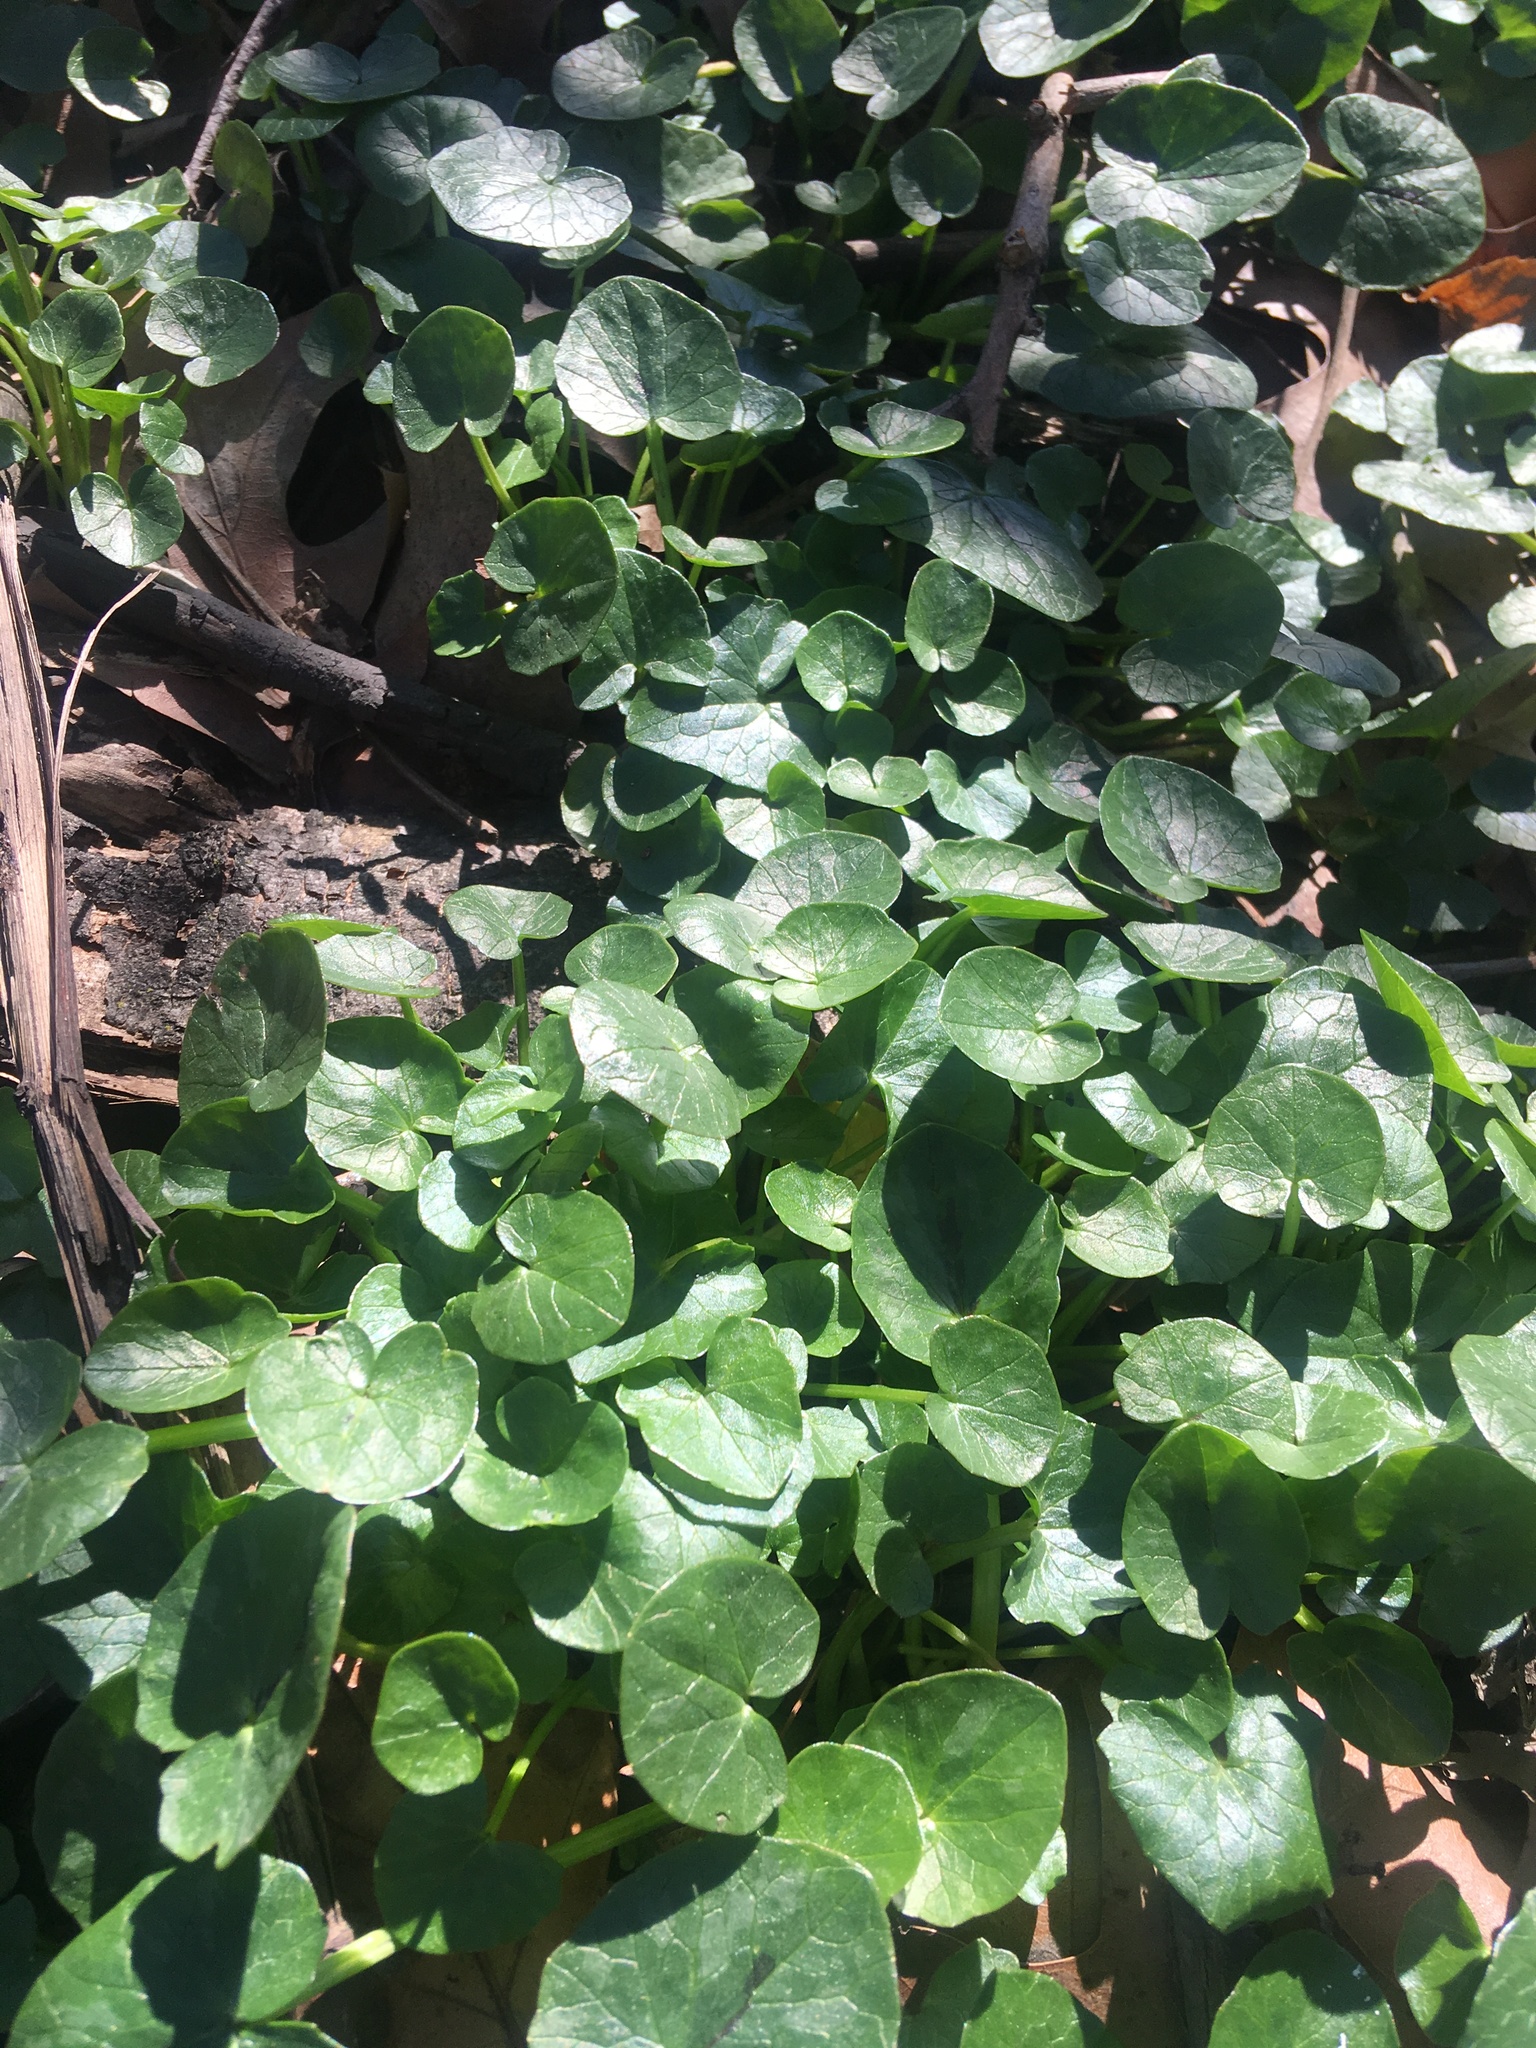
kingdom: Plantae
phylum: Tracheophyta
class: Magnoliopsida
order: Ranunculales
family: Ranunculaceae
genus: Ficaria
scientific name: Ficaria verna
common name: Lesser celandine
